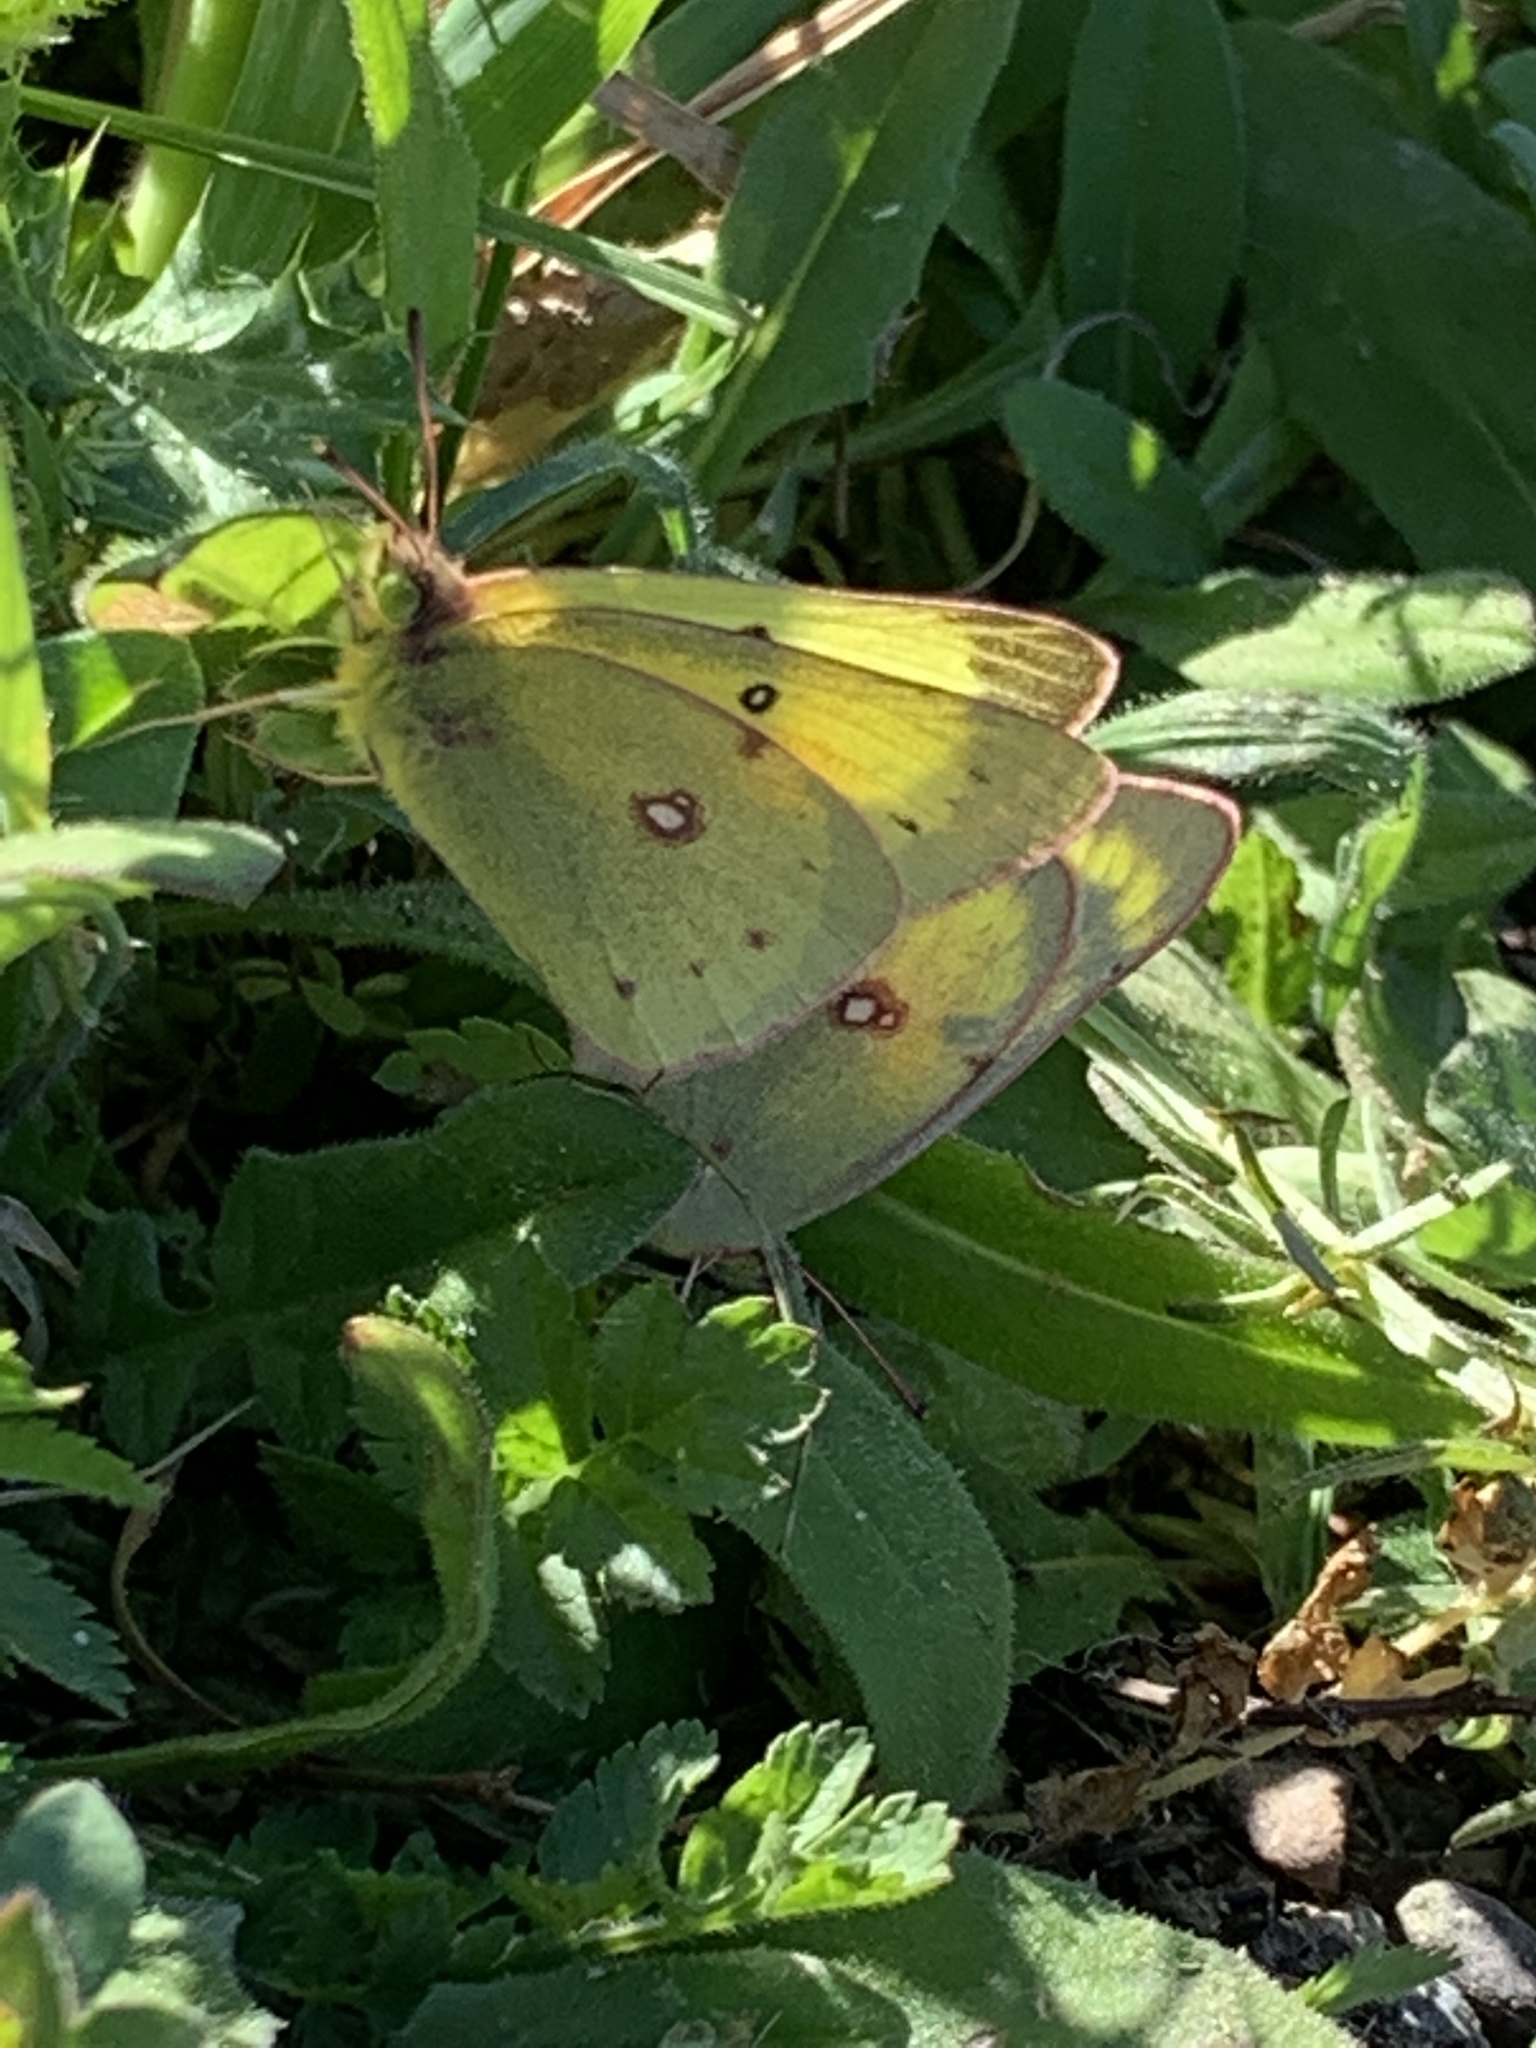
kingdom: Animalia
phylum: Arthropoda
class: Insecta
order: Lepidoptera
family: Pieridae
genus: Colias
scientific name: Colias eurytheme
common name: Alfalfa butterfly
